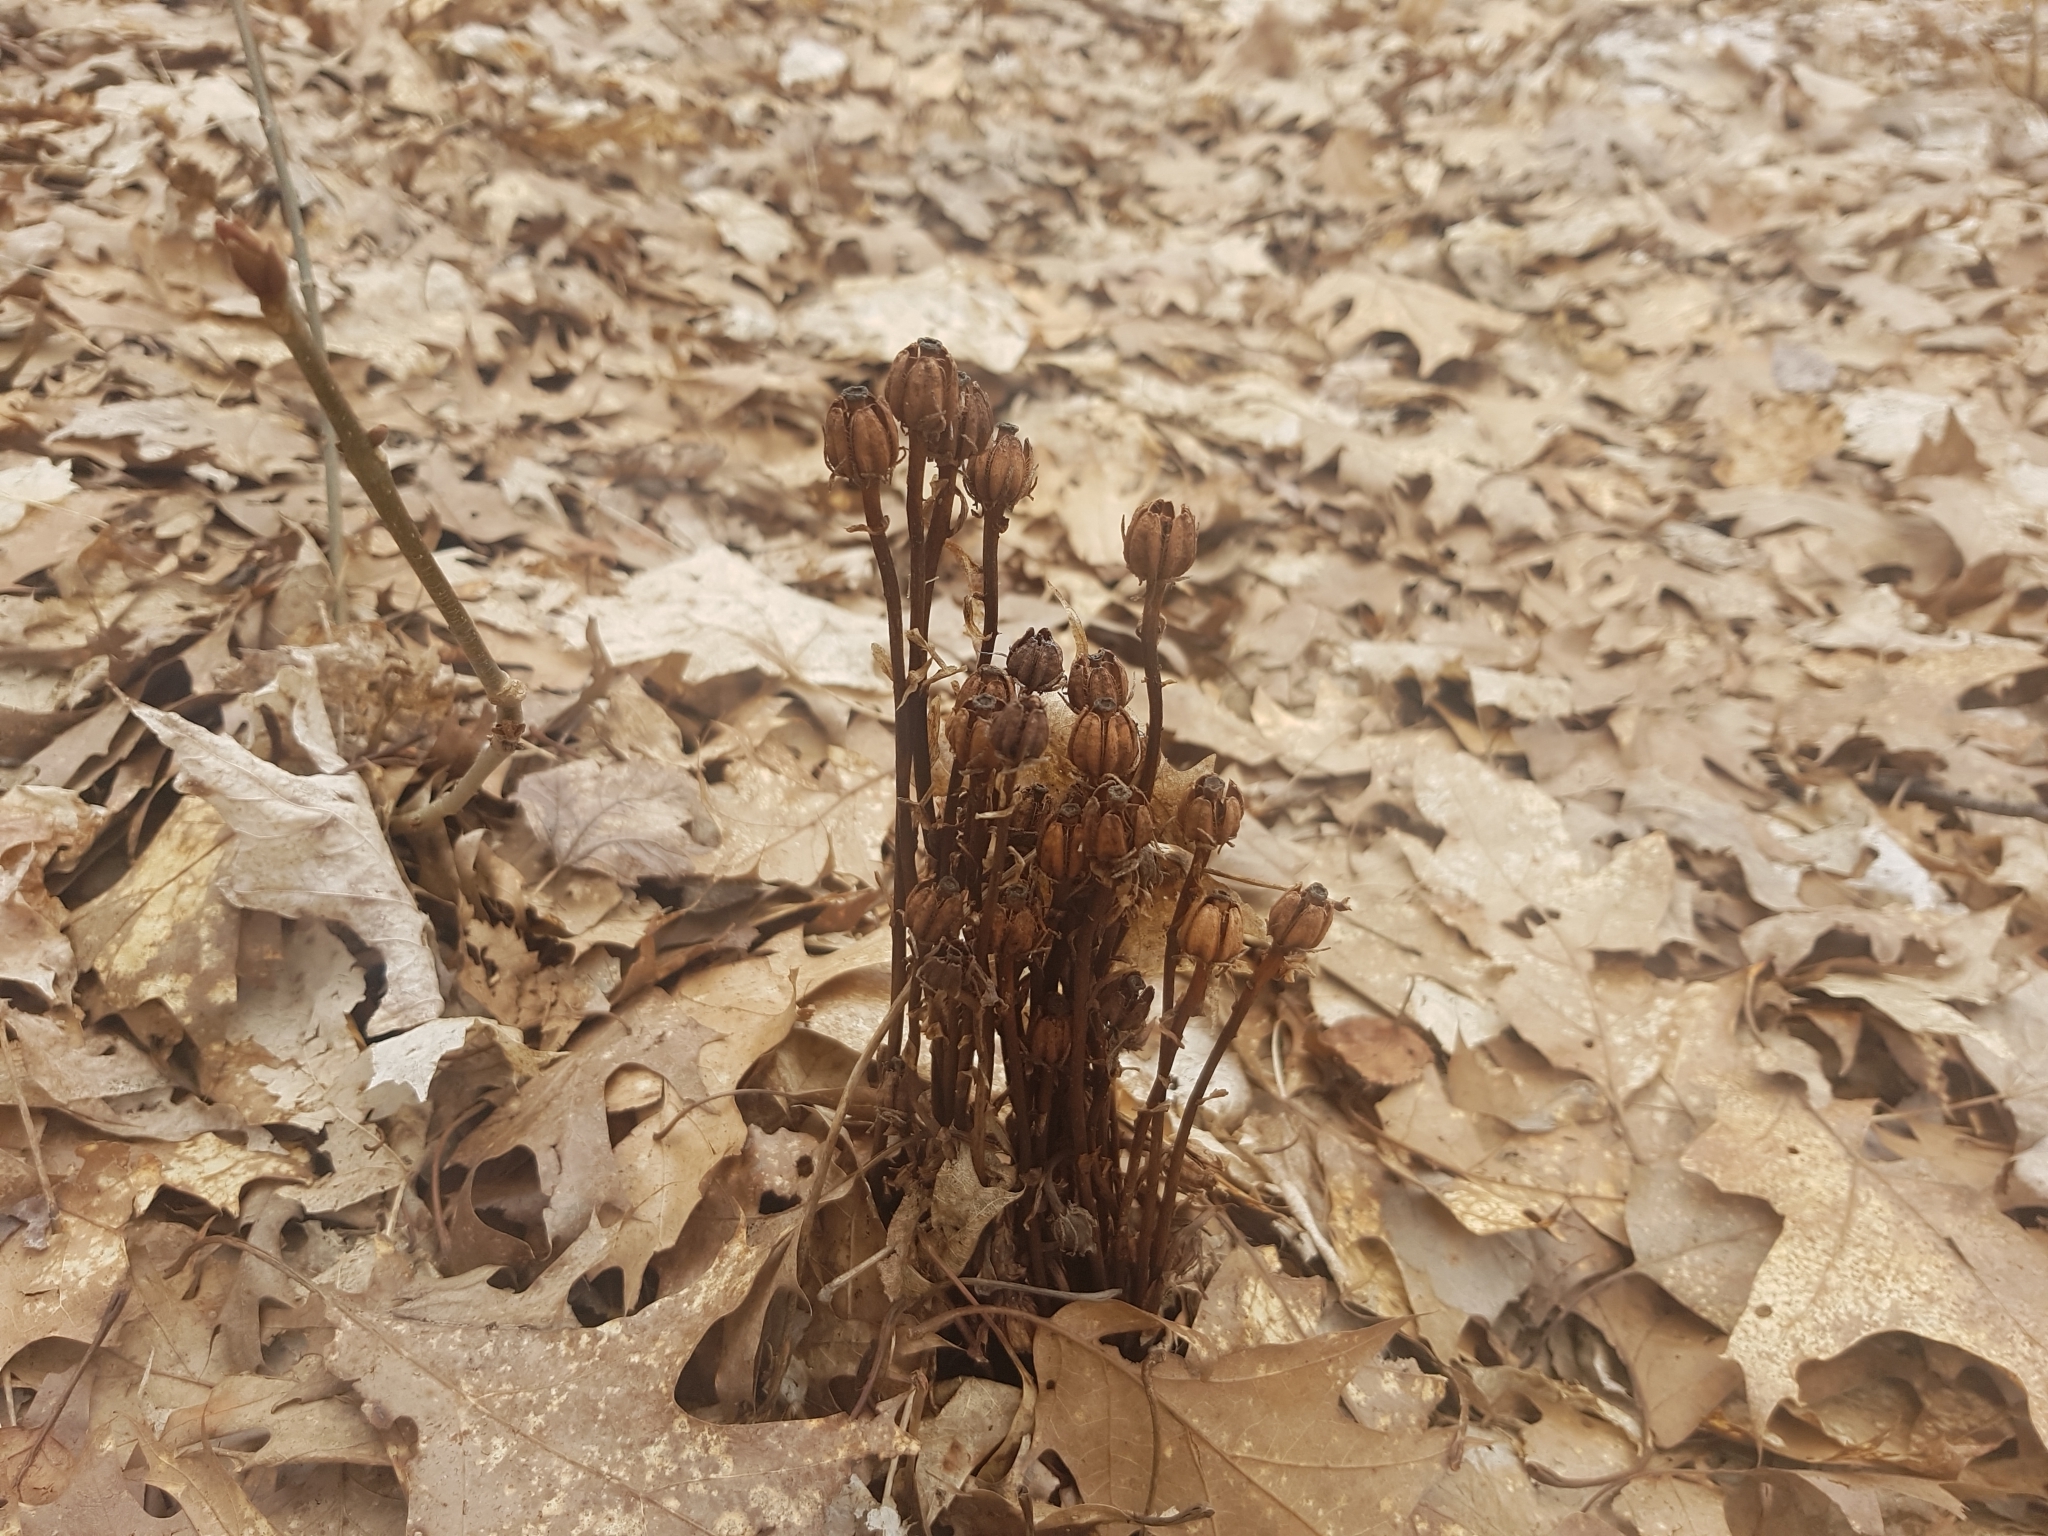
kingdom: Plantae
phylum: Tracheophyta
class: Magnoliopsida
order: Ericales
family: Ericaceae
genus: Monotropa
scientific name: Monotropa uniflora
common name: Convulsion root
